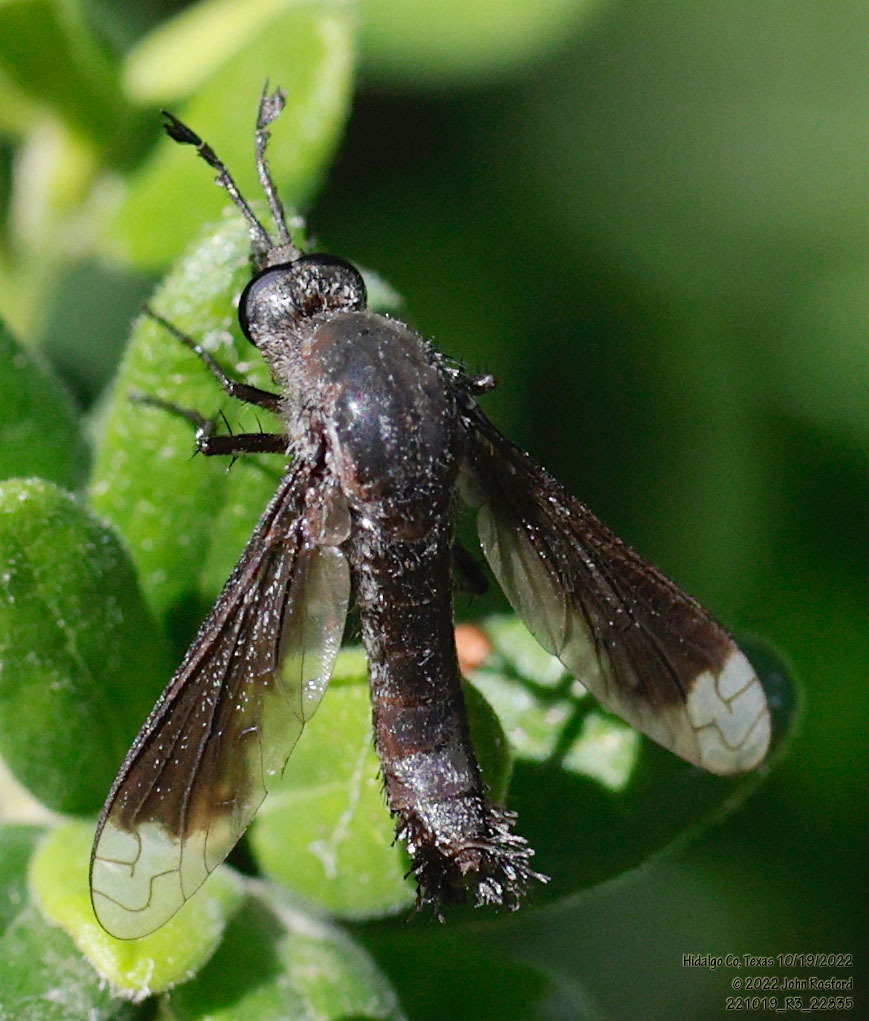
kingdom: Animalia
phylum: Arthropoda
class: Insecta
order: Diptera
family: Bombyliidae
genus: Lepidophora
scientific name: Lepidophora vetusta
